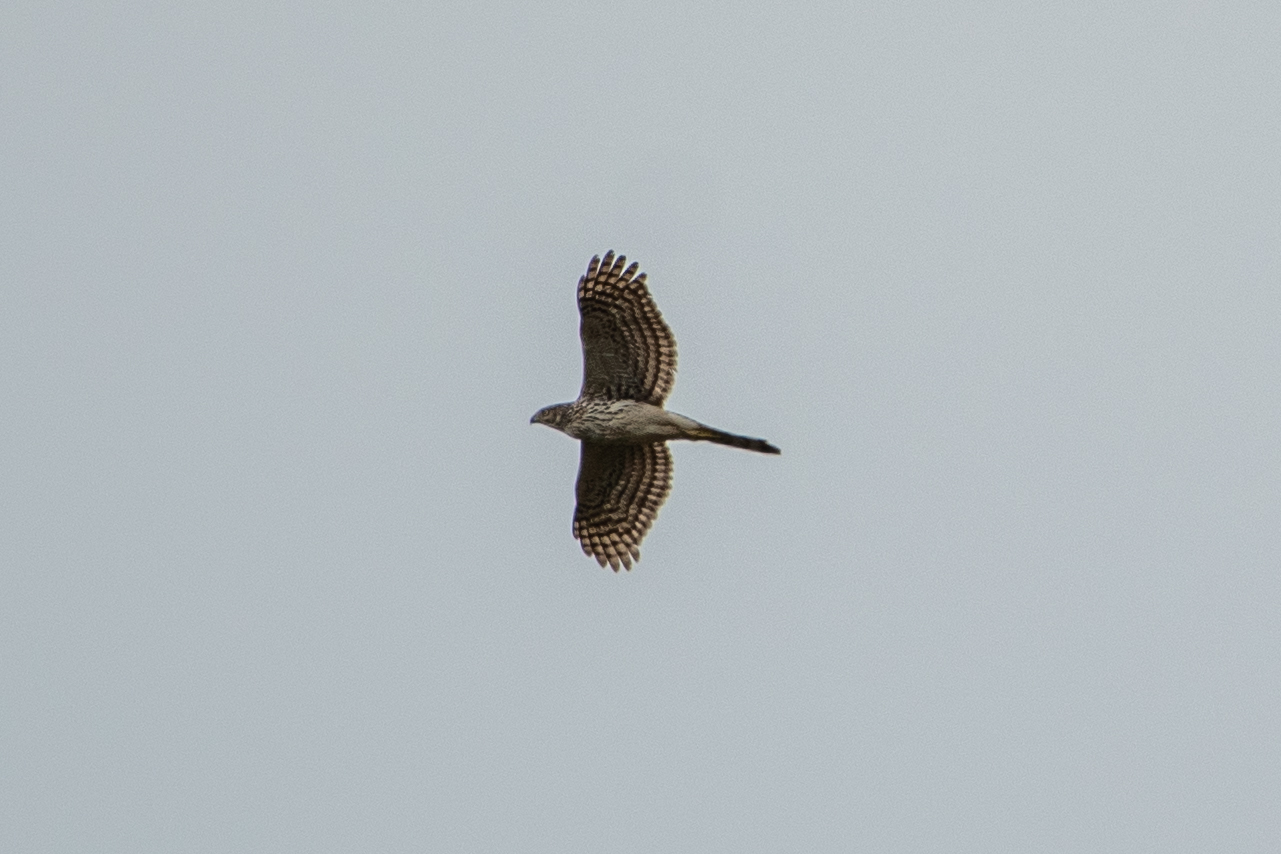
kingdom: Animalia
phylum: Chordata
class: Aves
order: Accipitriformes
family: Accipitridae
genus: Accipiter
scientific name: Accipiter cooperii
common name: Cooper's hawk
